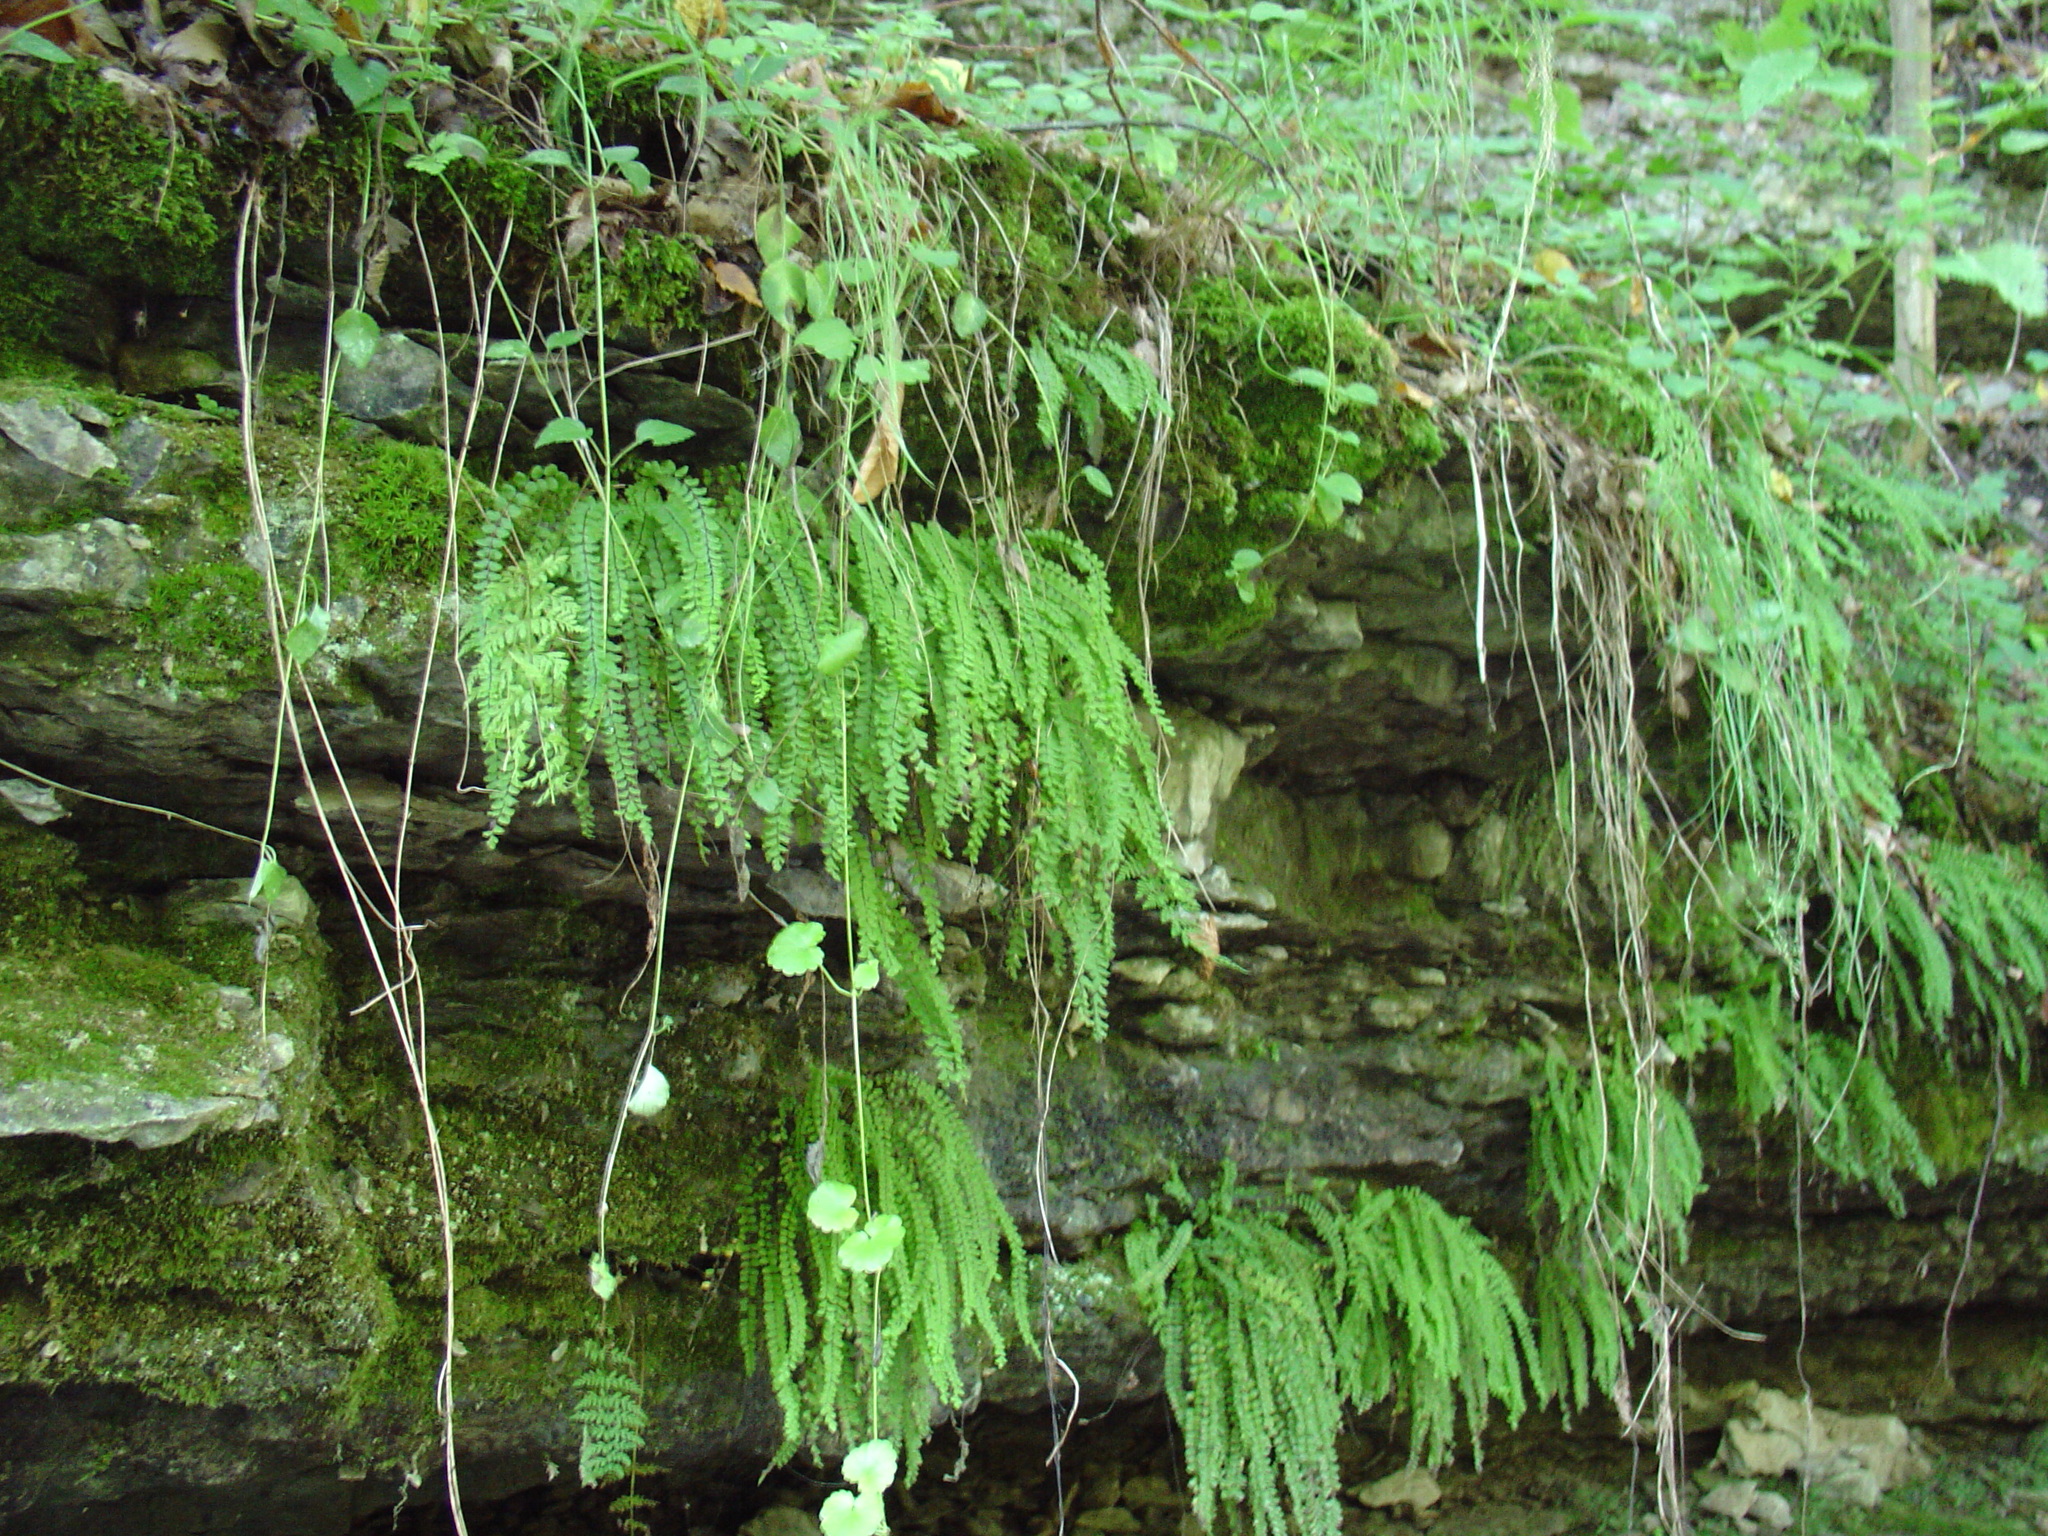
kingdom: Plantae
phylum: Tracheophyta
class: Polypodiopsida
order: Polypodiales
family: Aspleniaceae
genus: Asplenium
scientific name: Asplenium trichomanes
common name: Maidenhair spleenwort
